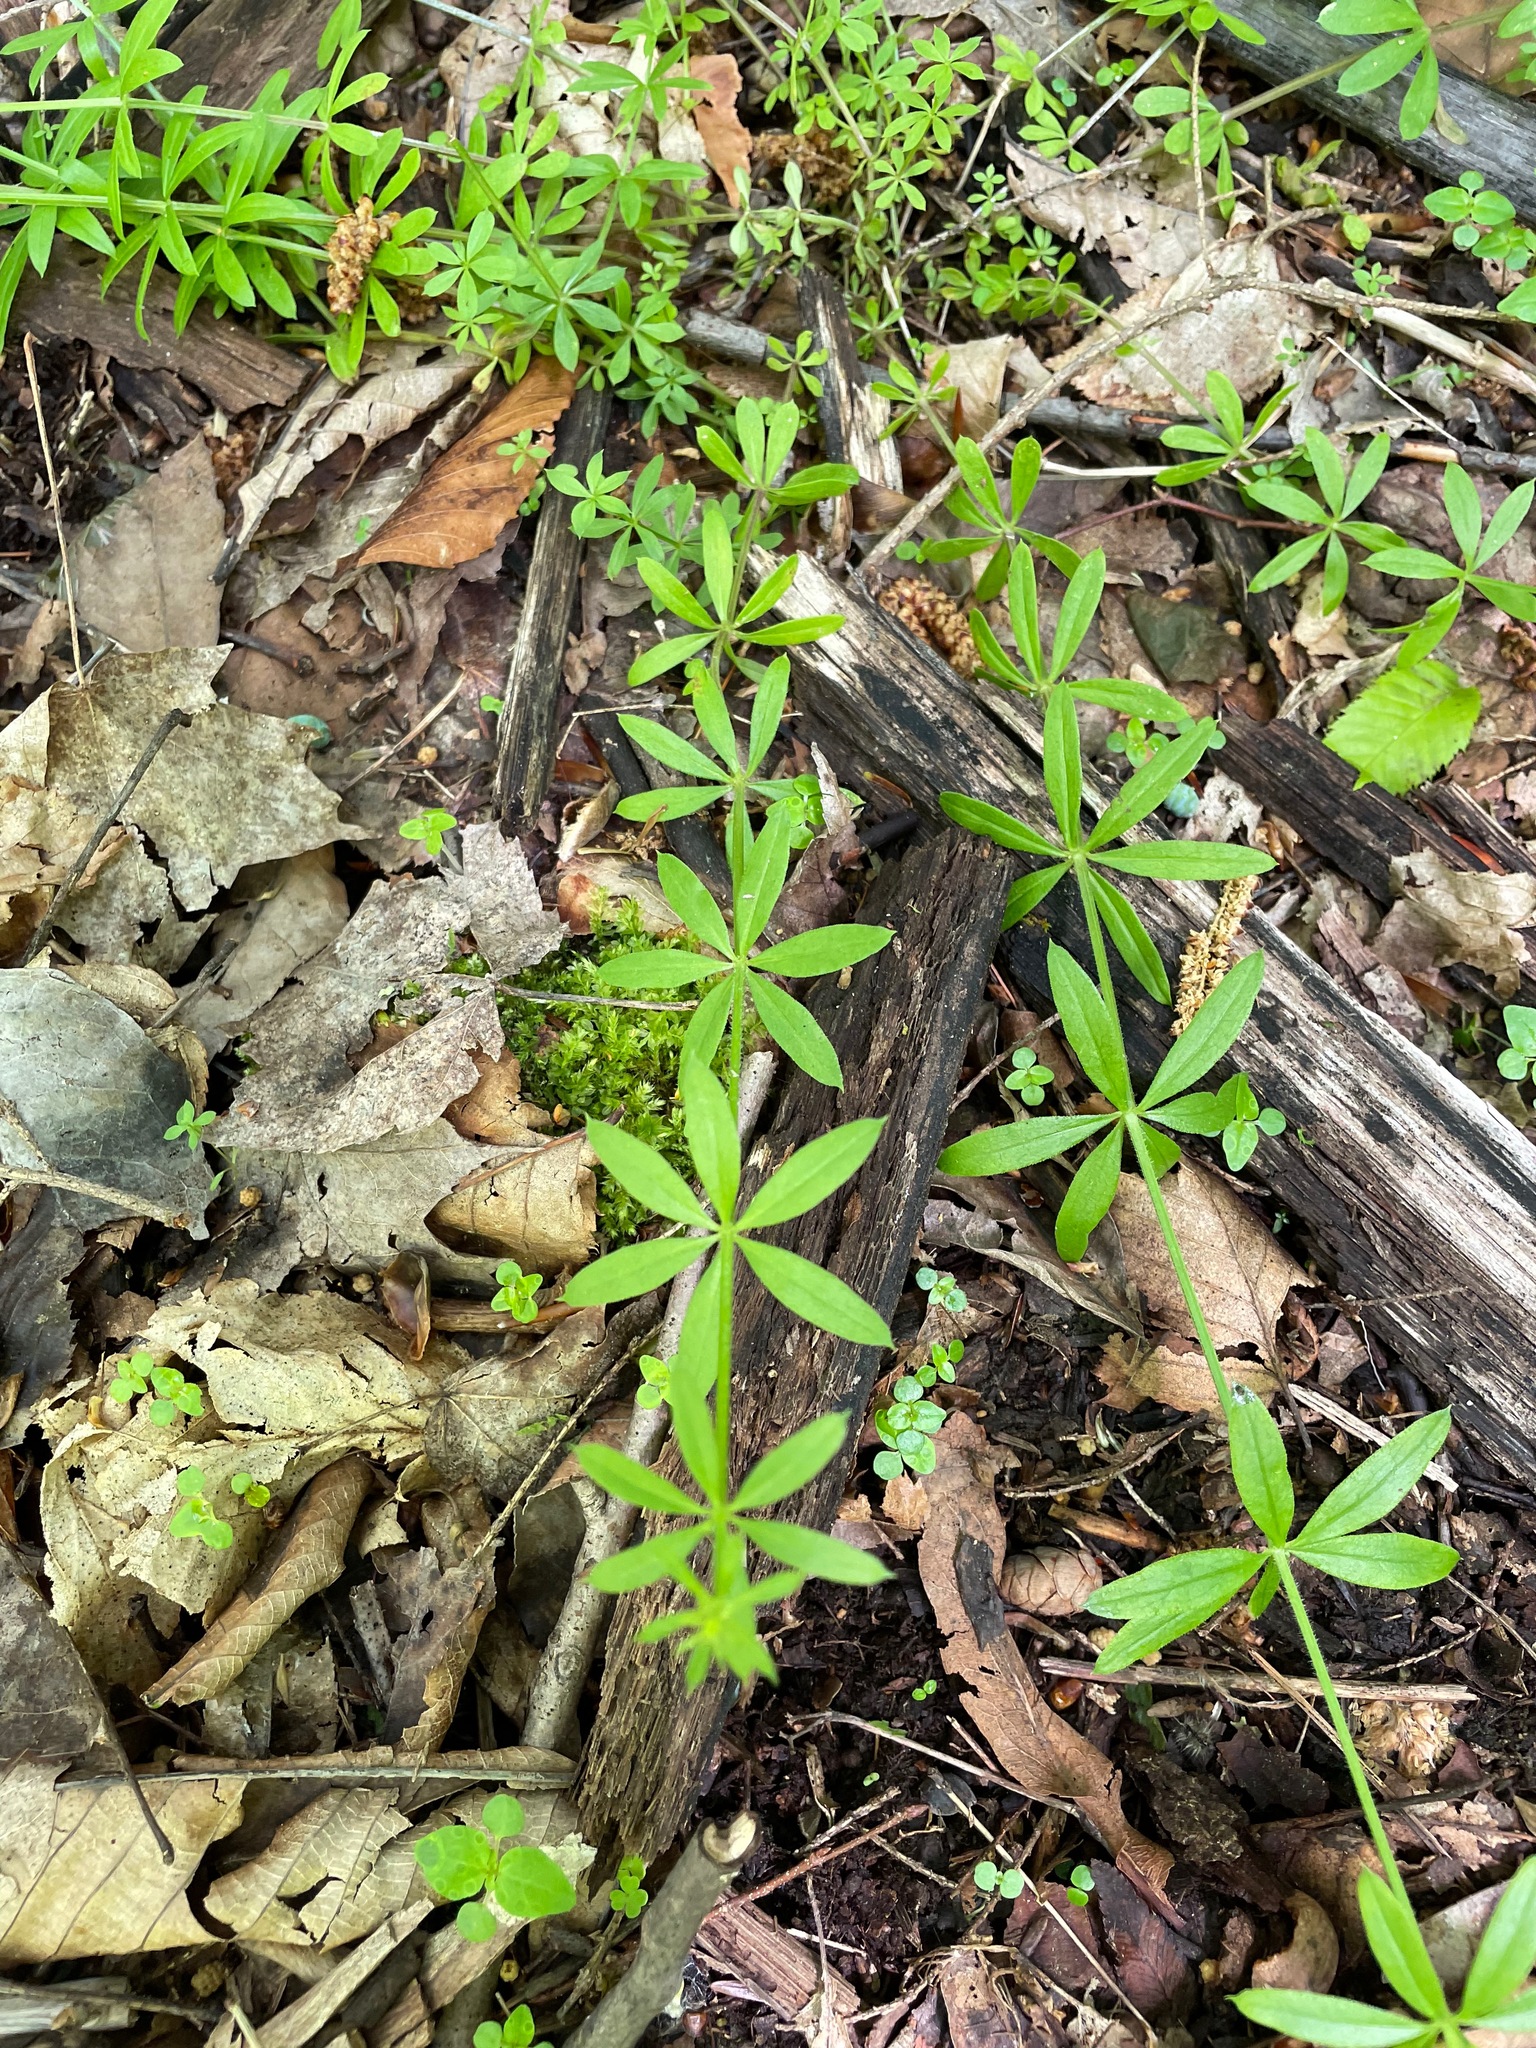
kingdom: Plantae
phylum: Tracheophyta
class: Magnoliopsida
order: Gentianales
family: Rubiaceae
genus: Galium
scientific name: Galium triflorum
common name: Fragrant bedstraw
